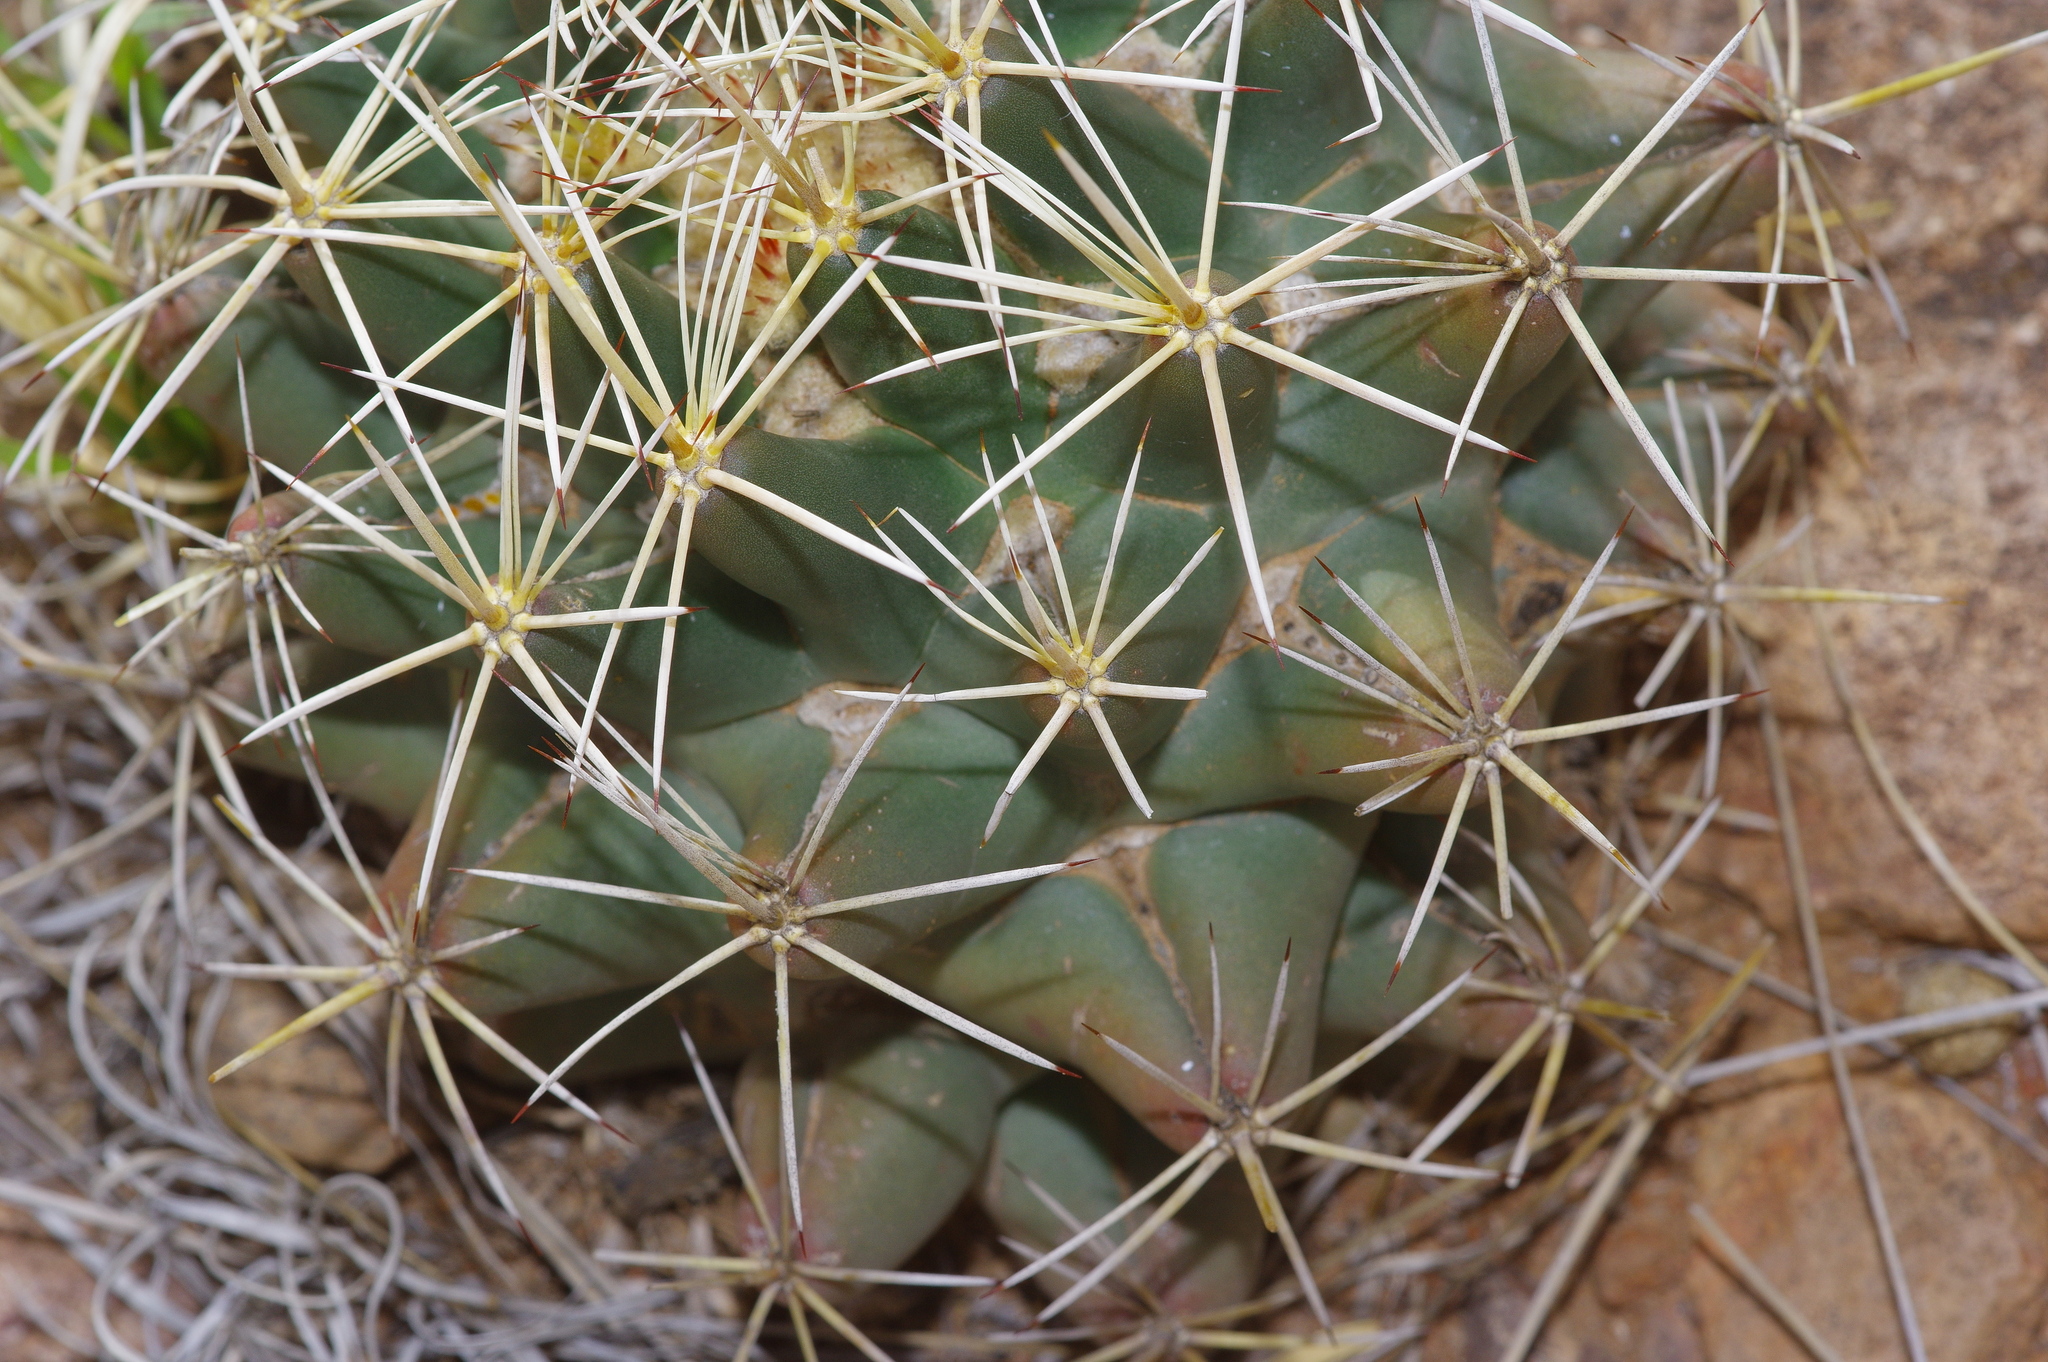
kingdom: Plantae
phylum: Tracheophyta
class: Magnoliopsida
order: Caryophyllales
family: Cactaceae
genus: Coryphantha
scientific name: Coryphantha robustispina
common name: Pima pineapple cactus
